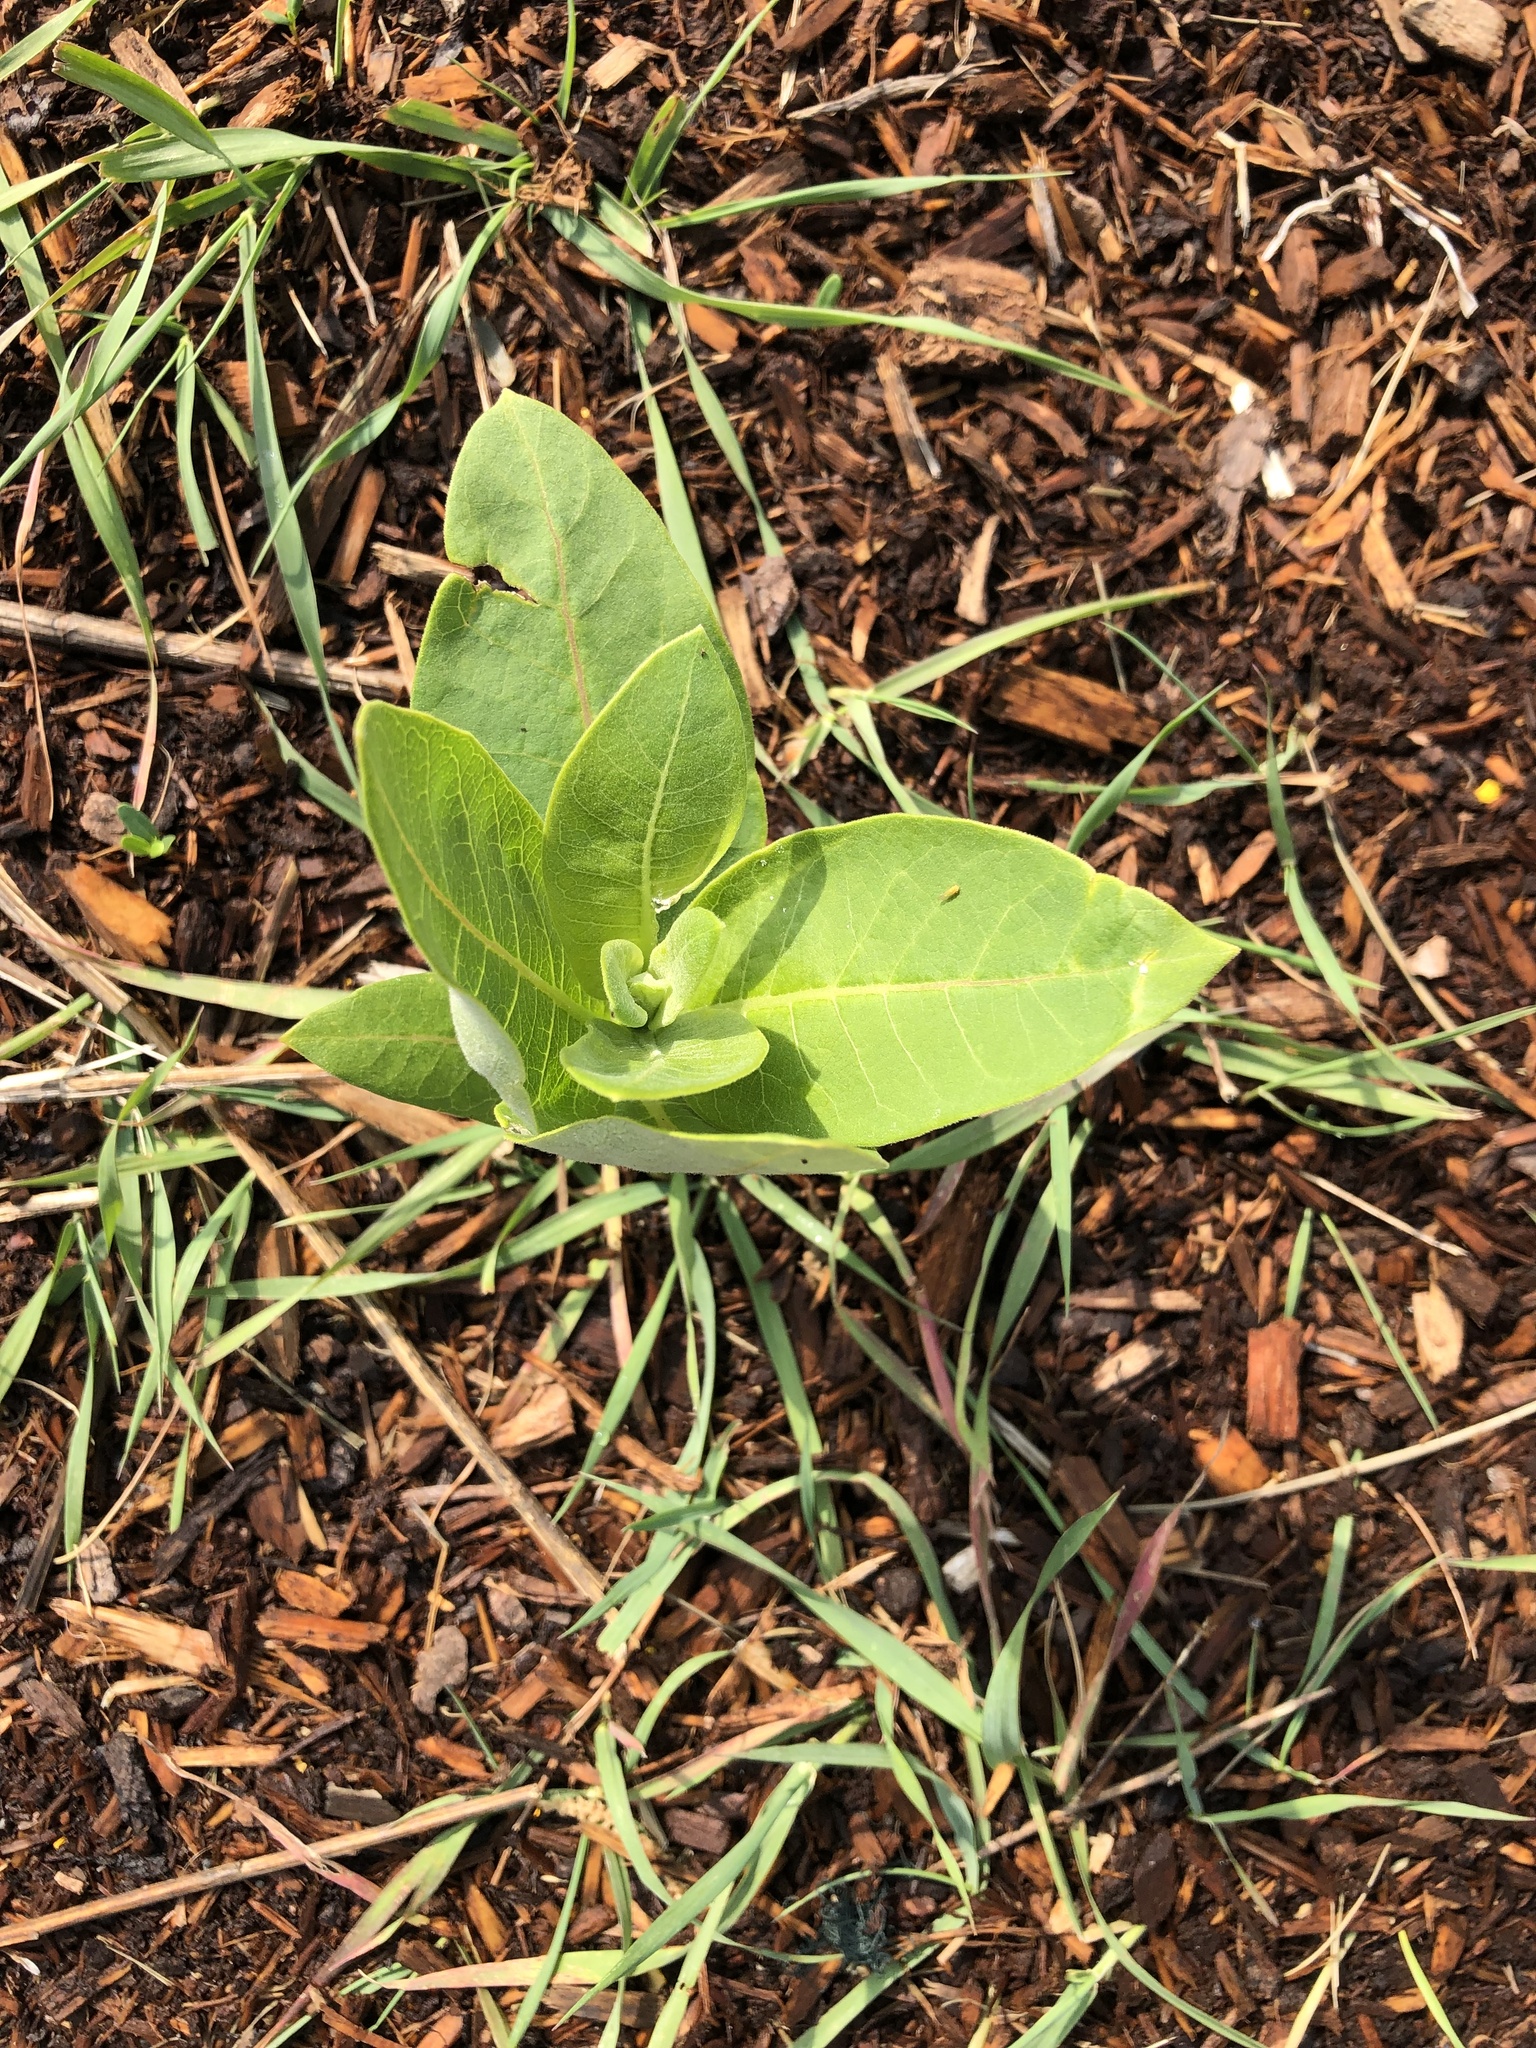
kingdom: Plantae
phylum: Tracheophyta
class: Magnoliopsida
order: Gentianales
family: Apocynaceae
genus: Asclepias
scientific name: Asclepias syriaca
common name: Common milkweed
